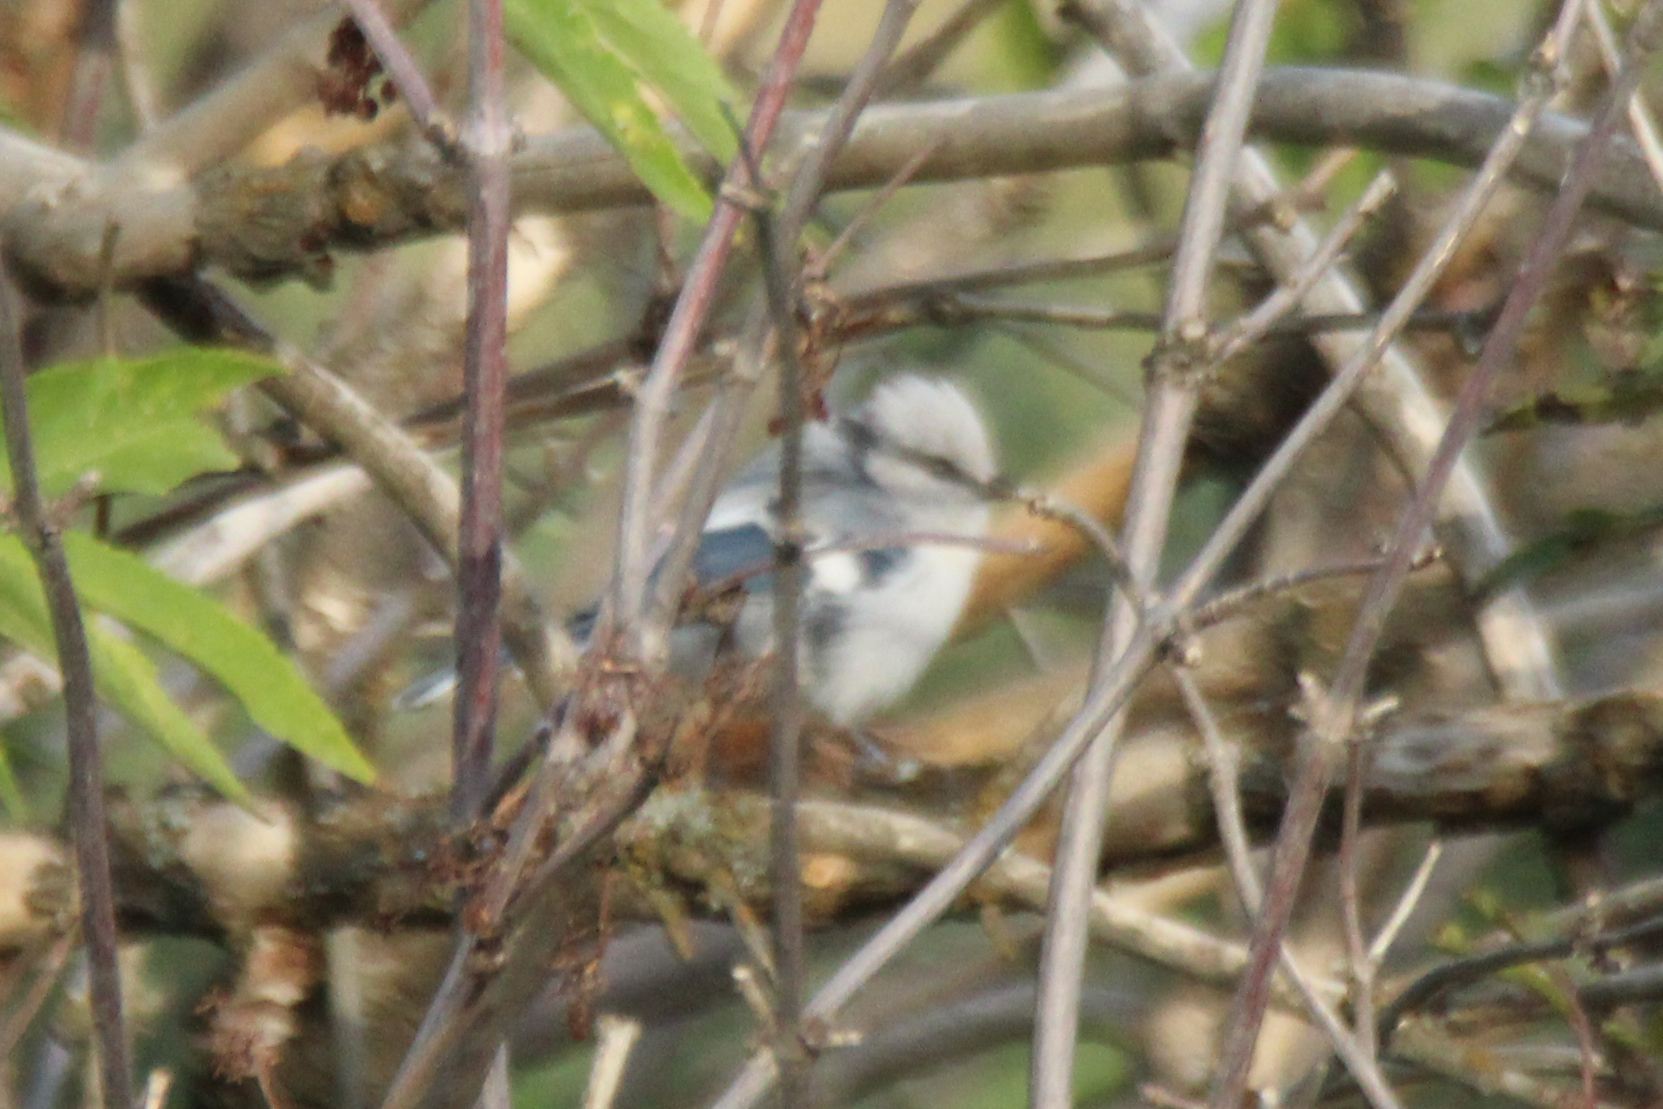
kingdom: Animalia
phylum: Chordata
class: Aves
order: Passeriformes
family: Paridae
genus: Cyanistes
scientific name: Cyanistes cyanus
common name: Azure tit
